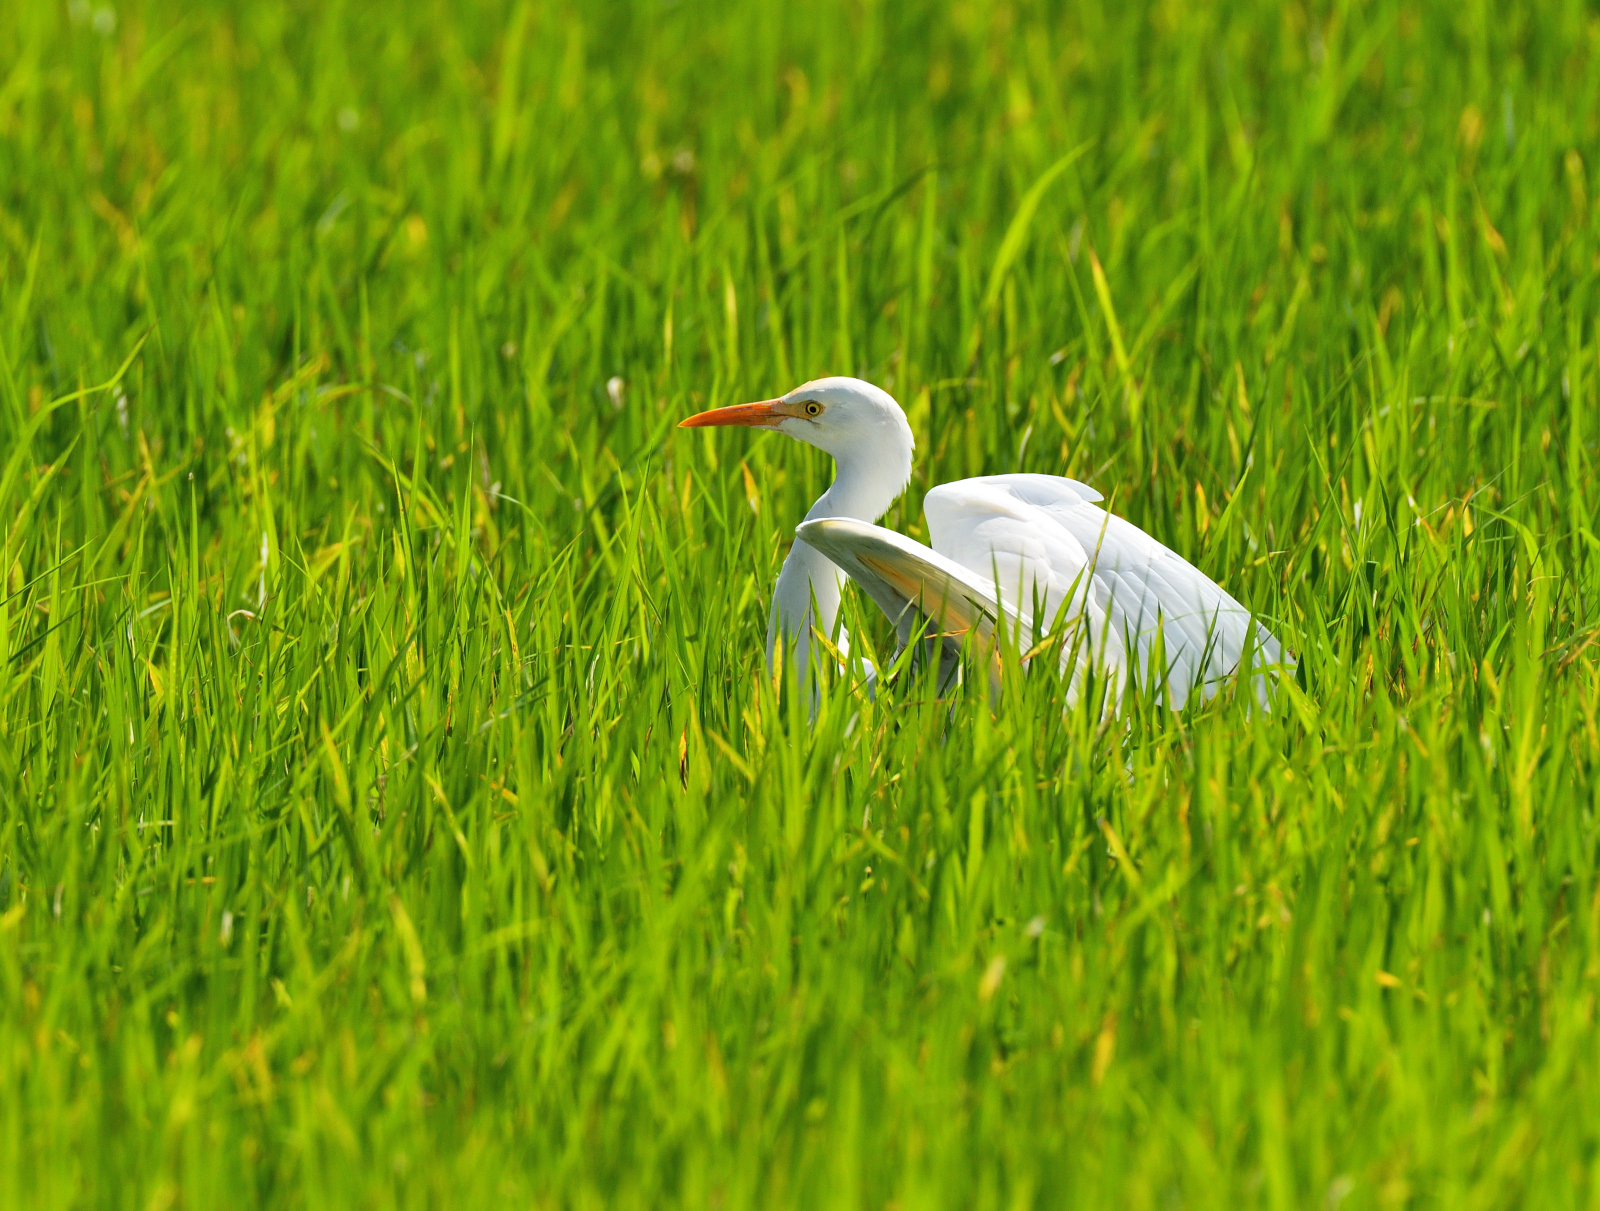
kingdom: Animalia
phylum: Chordata
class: Aves
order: Pelecaniformes
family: Ardeidae
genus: Bubulcus
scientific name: Bubulcus coromandus
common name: Eastern cattle egret
